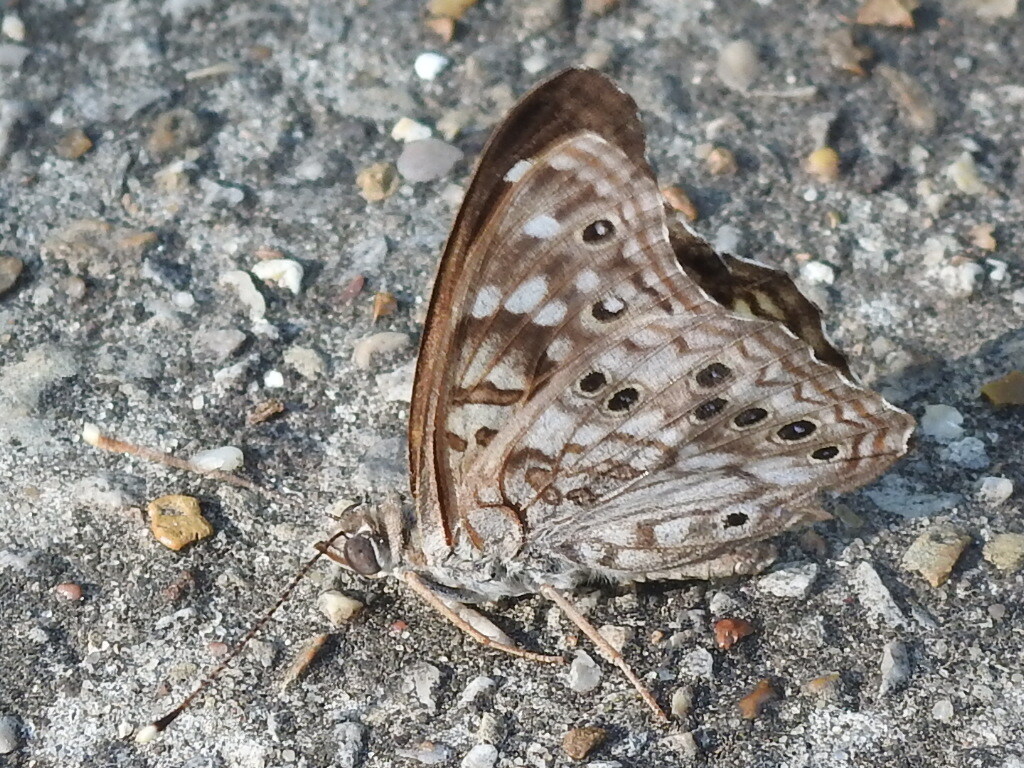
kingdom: Animalia
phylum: Arthropoda
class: Insecta
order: Lepidoptera
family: Nymphalidae
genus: Asterocampa
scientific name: Asterocampa celtis
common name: Hackberry emperor
